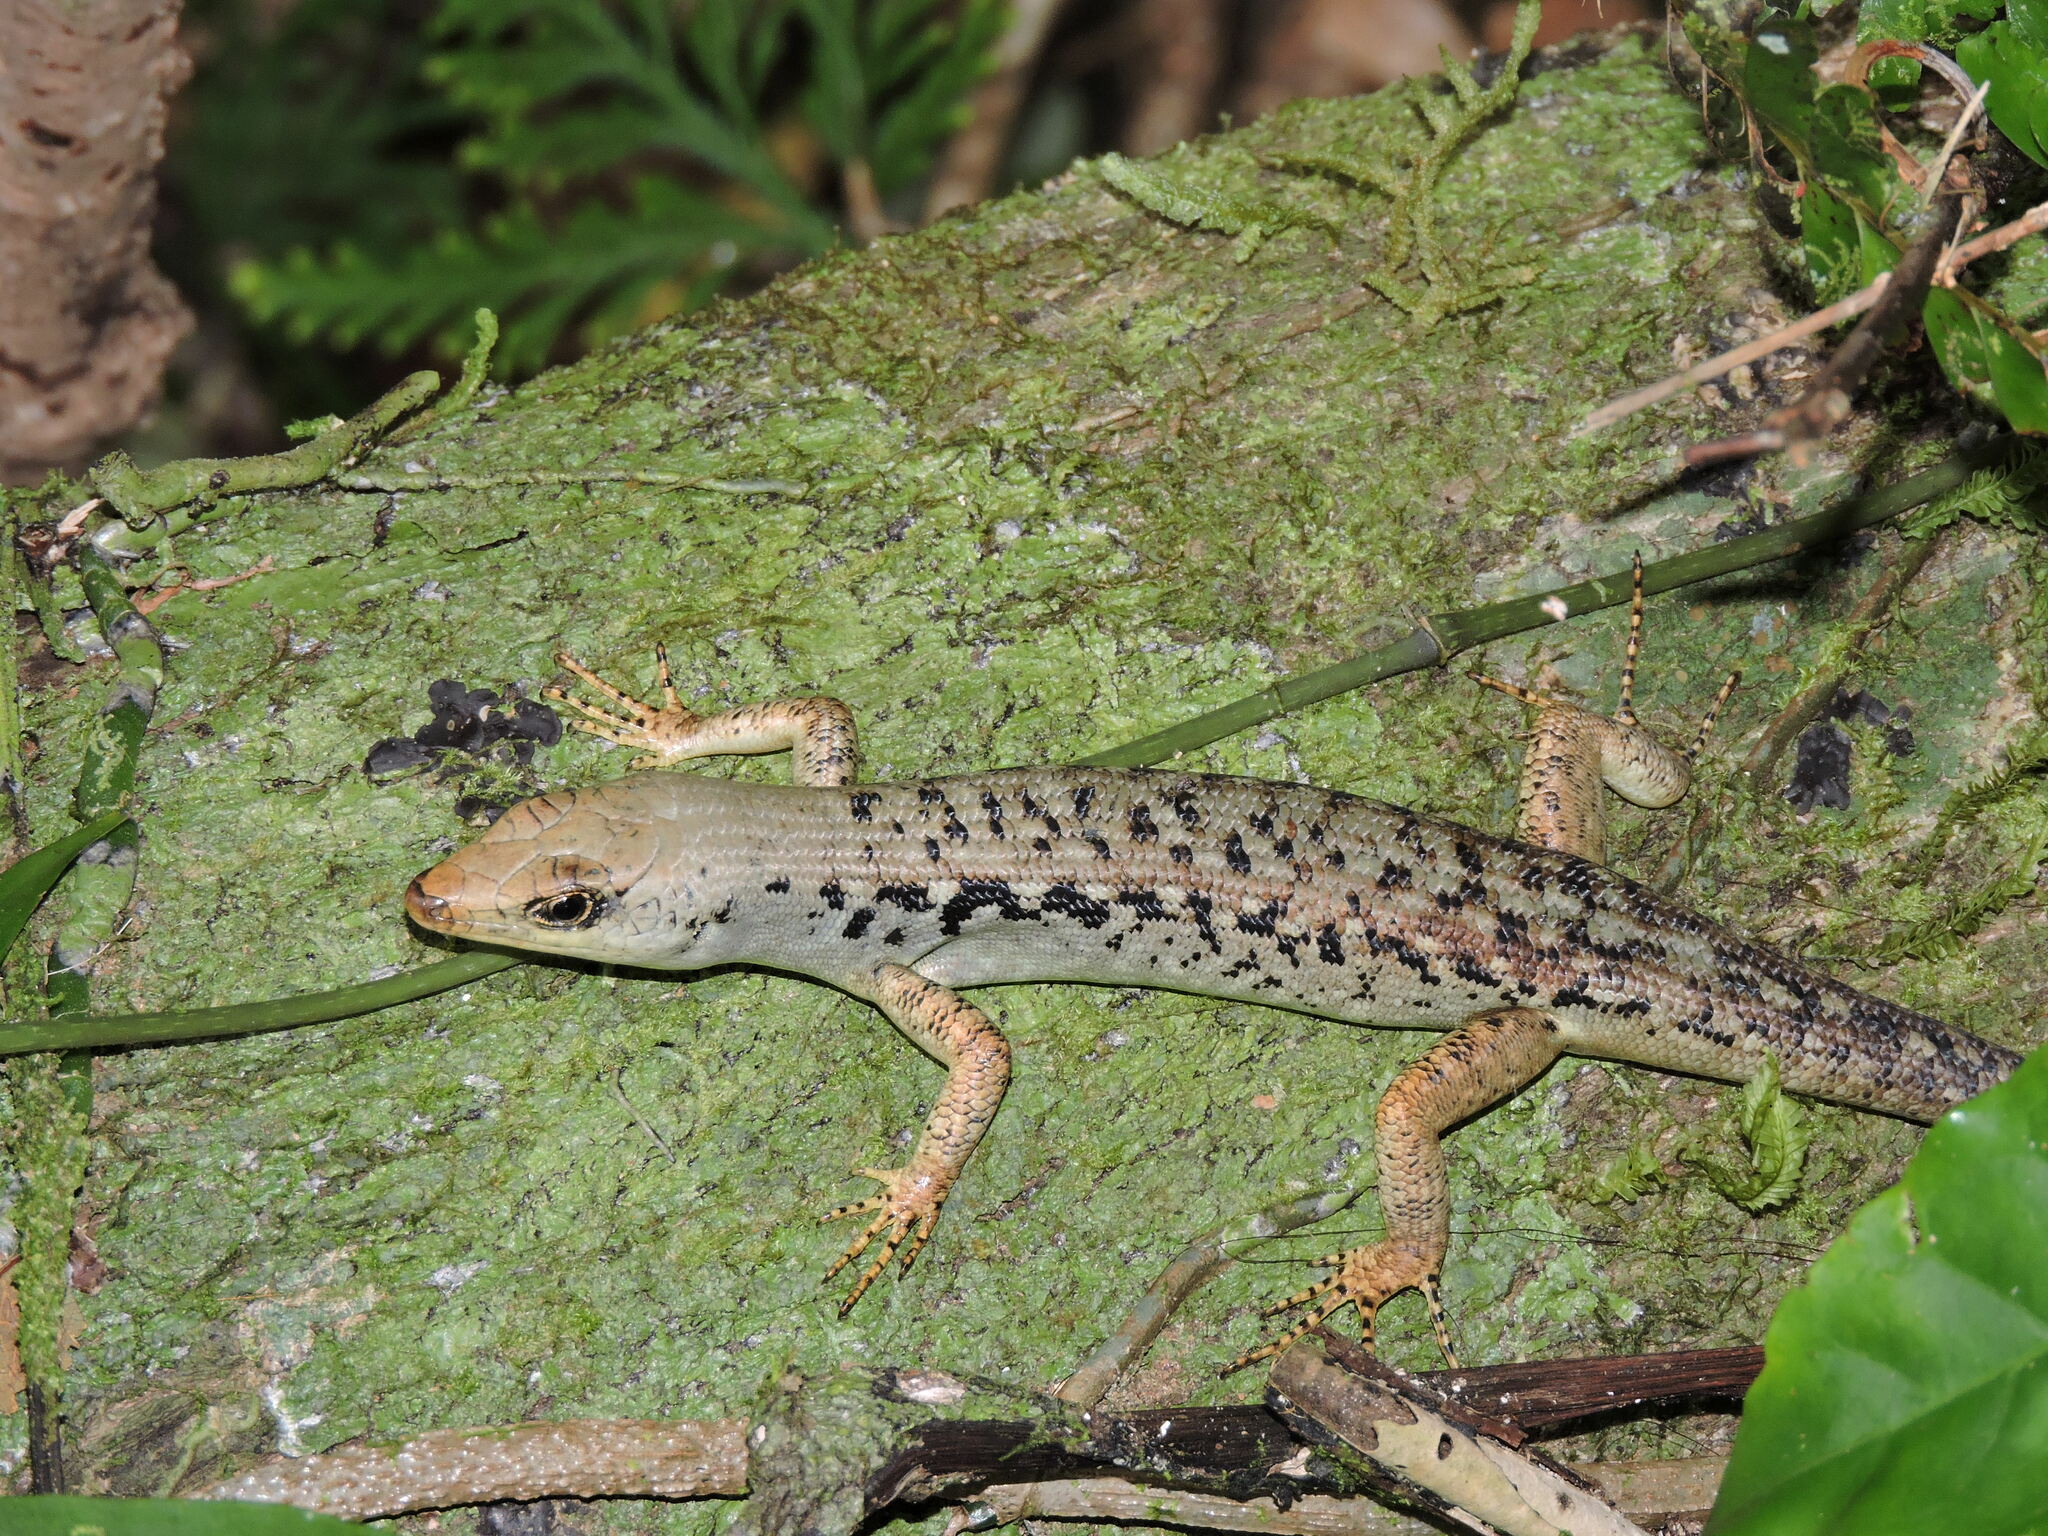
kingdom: Animalia
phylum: Chordata
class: Squamata
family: Scincidae
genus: Emoia
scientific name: Emoia aneityumensis
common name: Medway's emo skink
